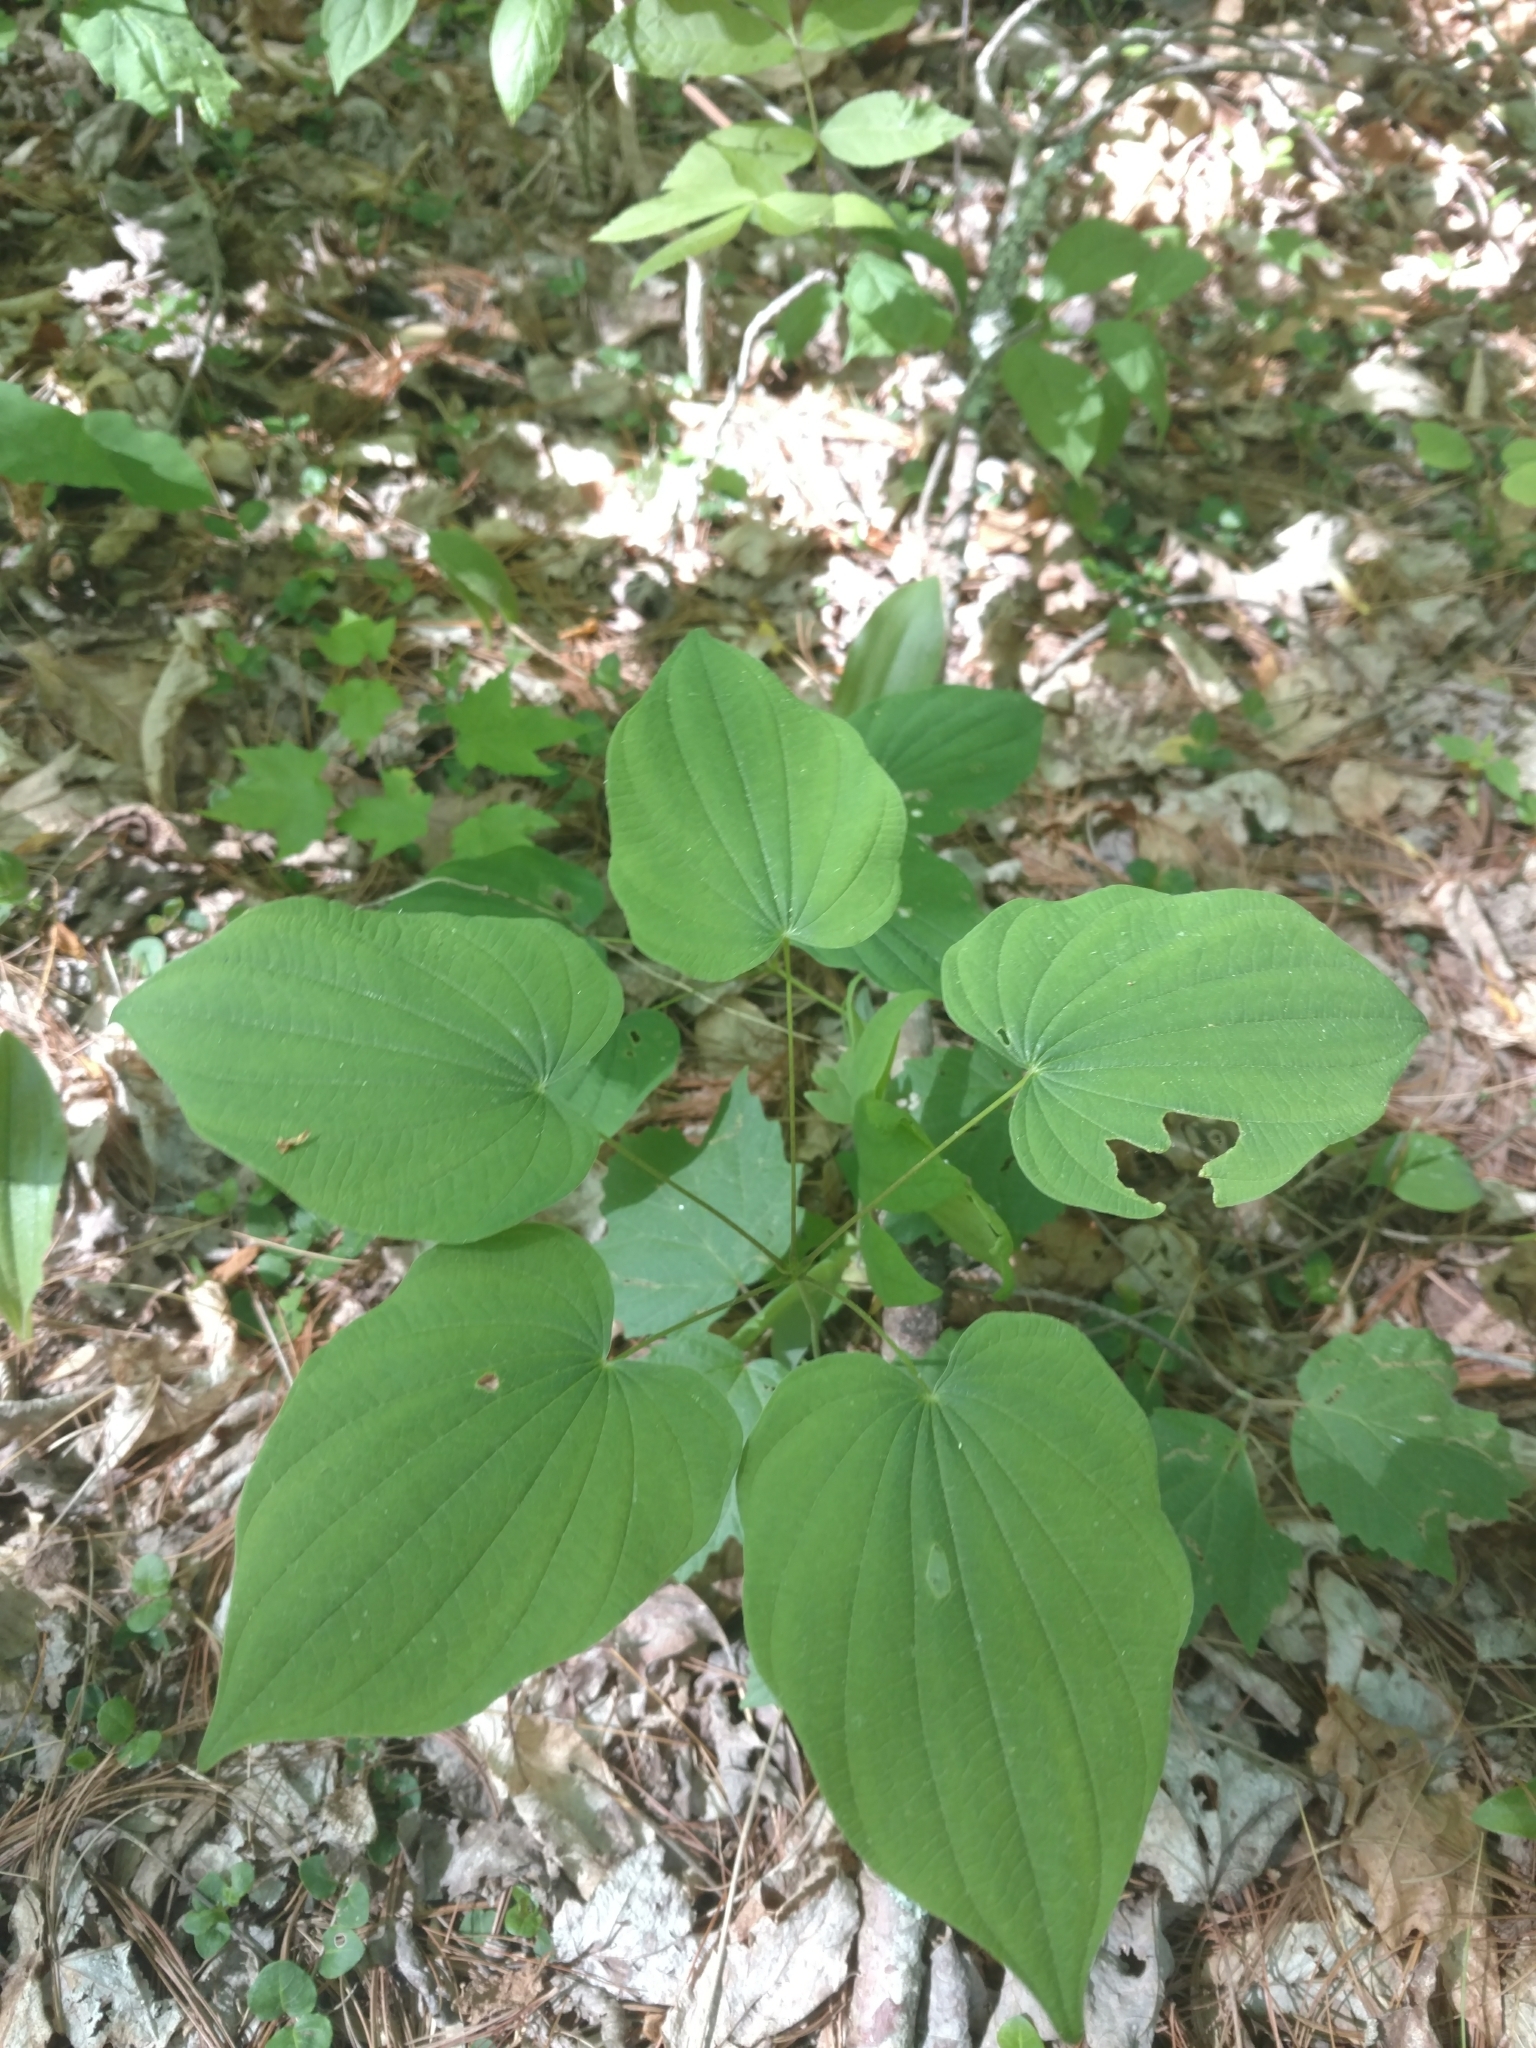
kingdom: Plantae
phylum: Tracheophyta
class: Liliopsida
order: Dioscoreales
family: Dioscoreaceae
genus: Dioscorea
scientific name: Dioscorea villosa
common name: Wild yam
